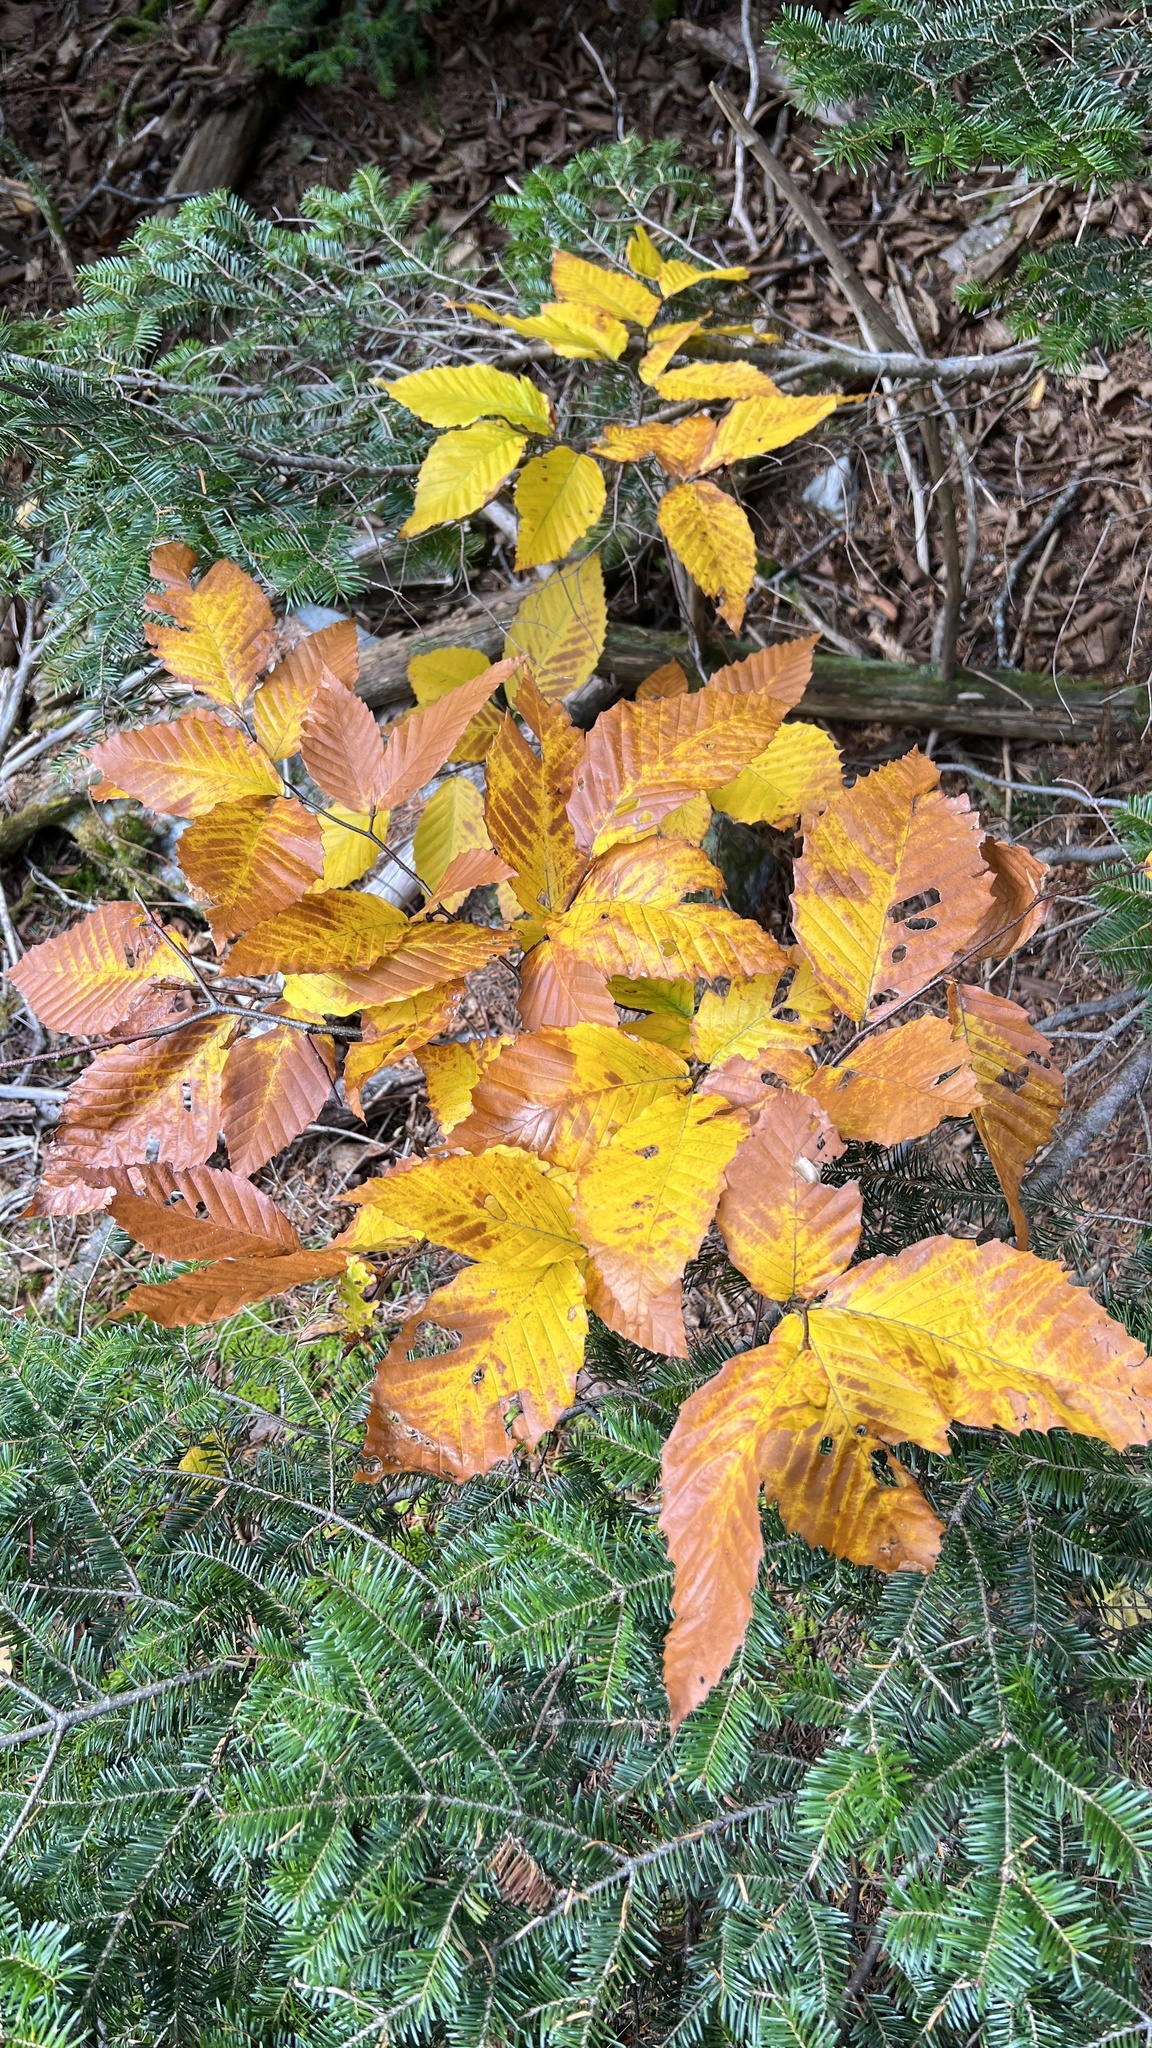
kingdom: Plantae
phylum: Tracheophyta
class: Magnoliopsida
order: Fagales
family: Fagaceae
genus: Fagus
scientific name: Fagus grandifolia
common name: American beech
